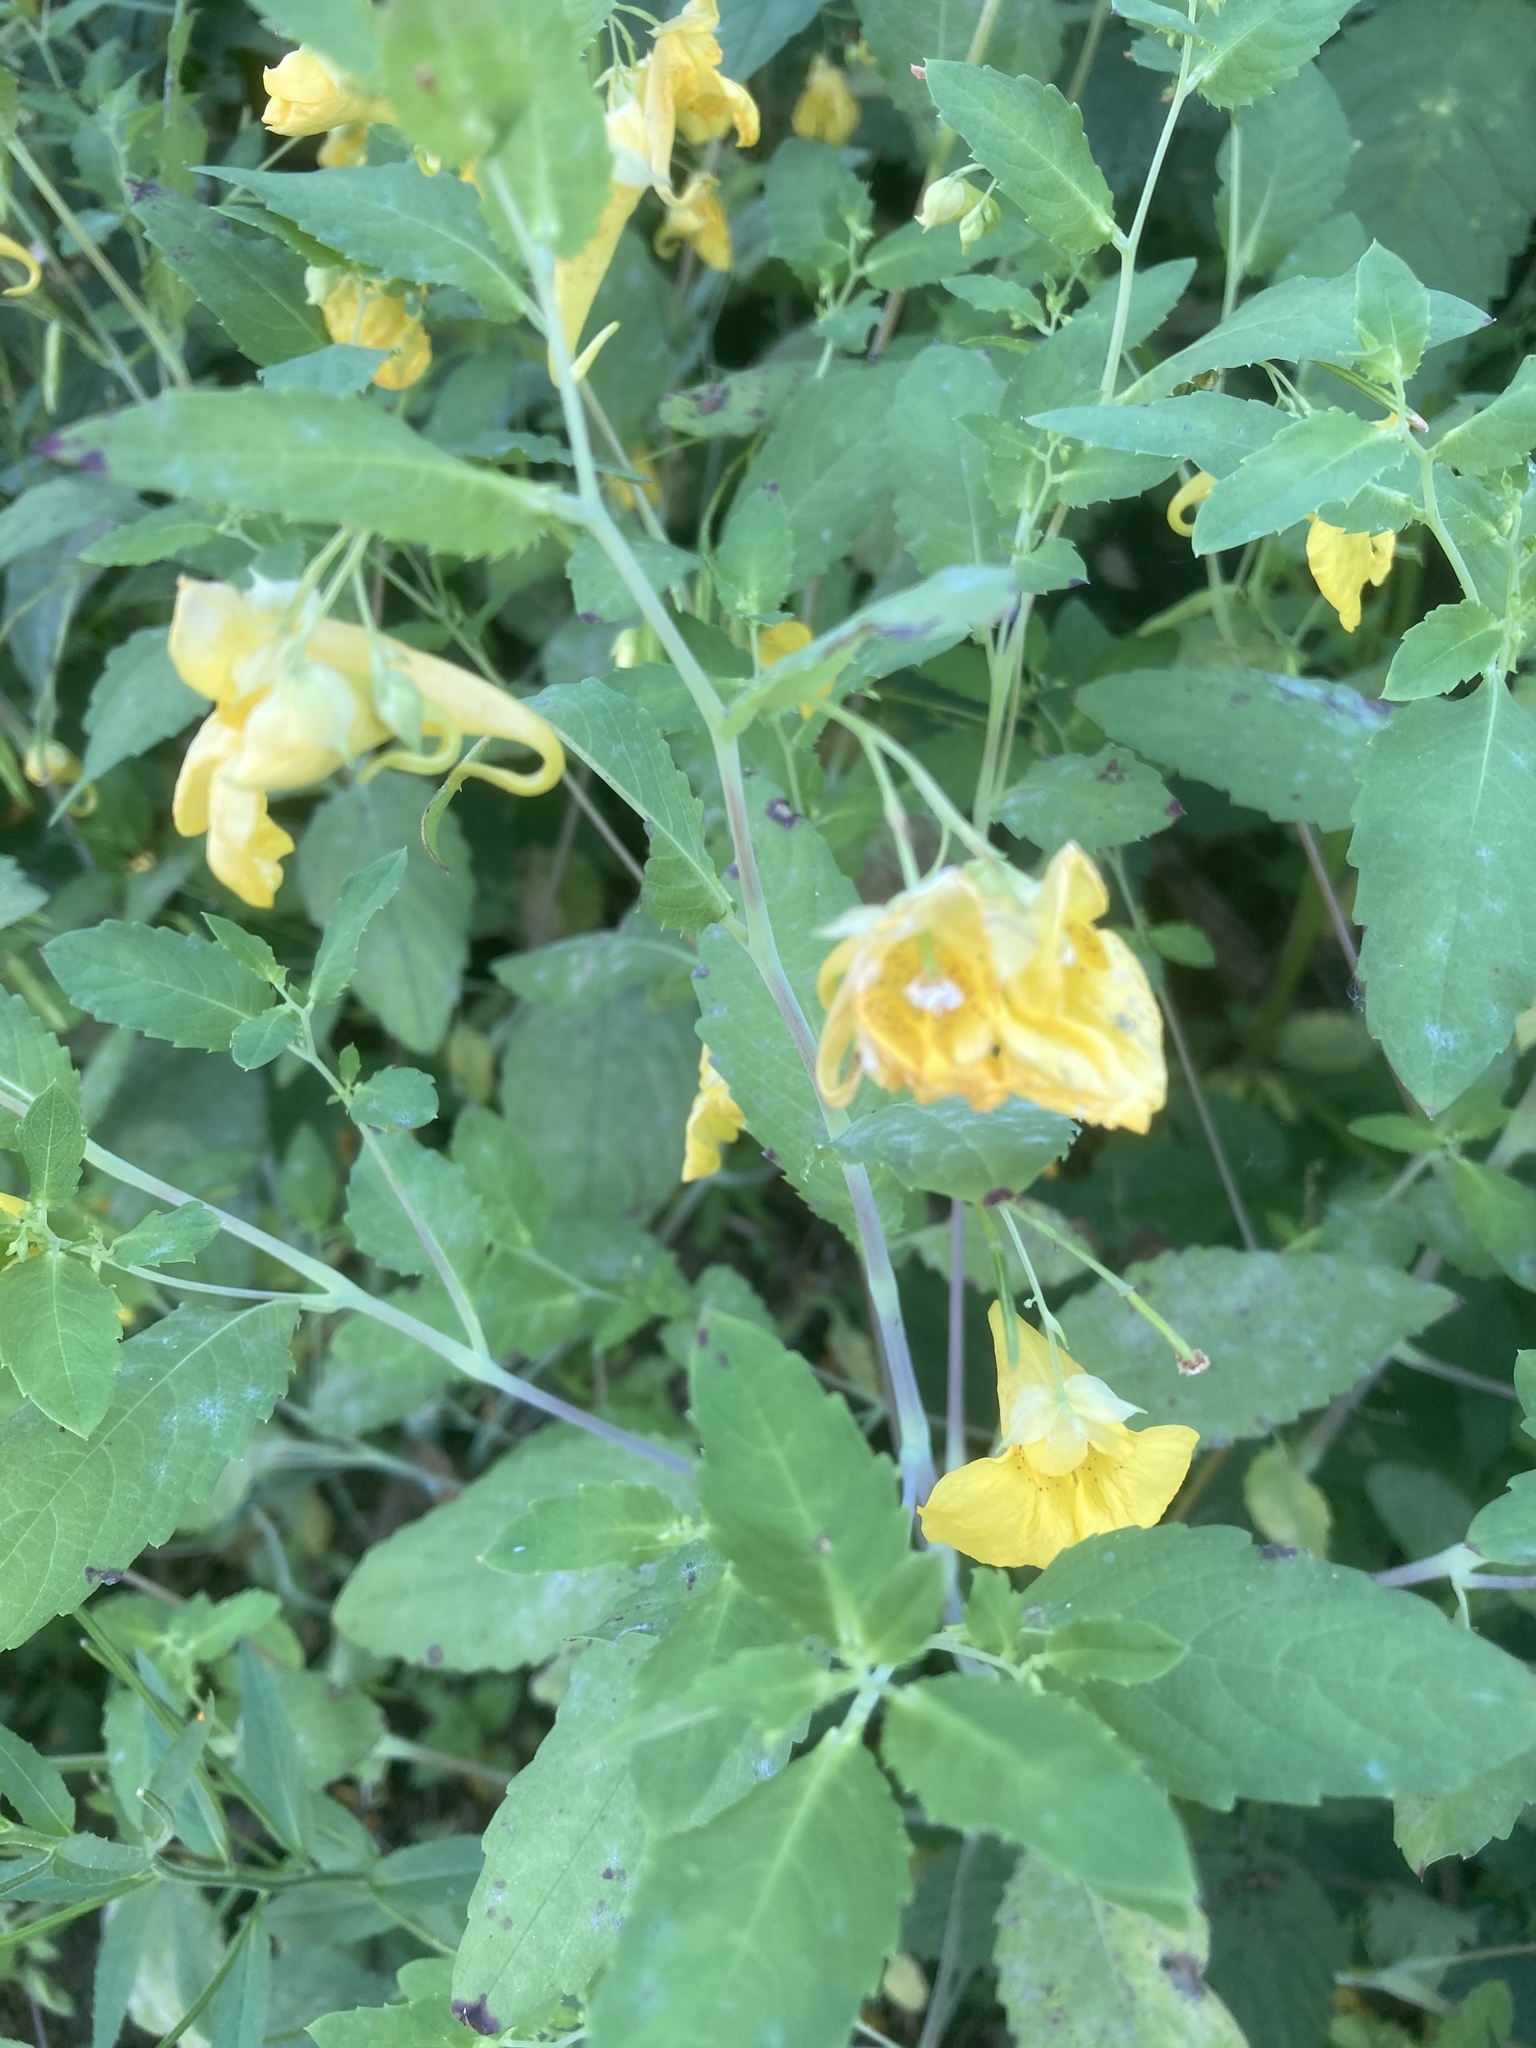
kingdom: Plantae
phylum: Tracheophyta
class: Magnoliopsida
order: Ericales
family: Balsaminaceae
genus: Impatiens
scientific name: Impatiens noli-tangere
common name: Touch-me-not balsam
